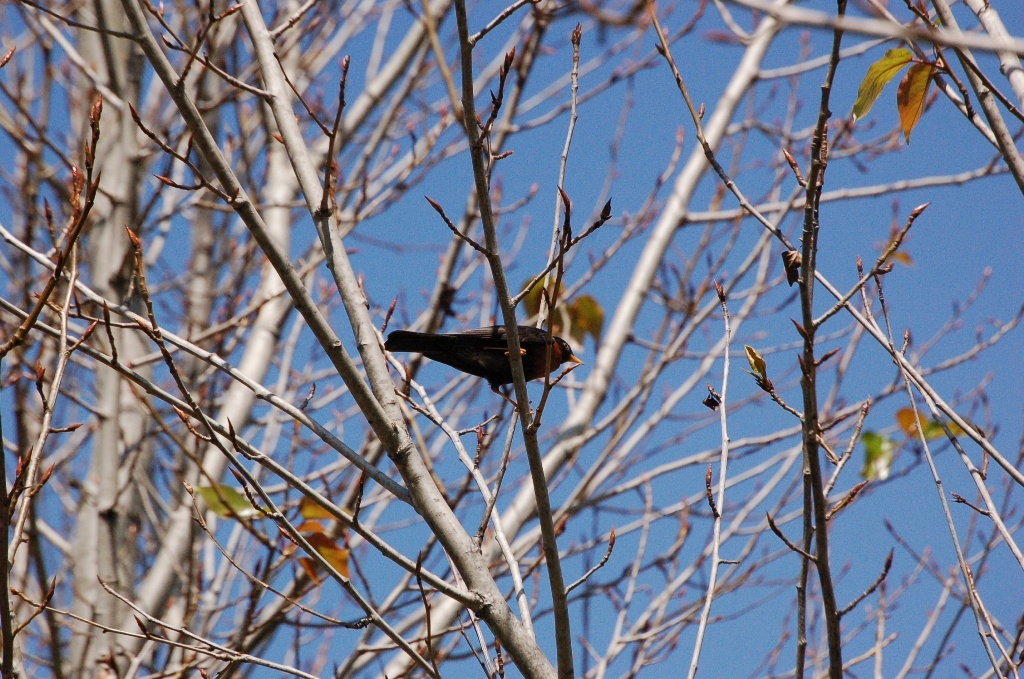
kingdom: Animalia
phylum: Chordata
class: Aves
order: Passeriformes
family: Turdidae
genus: Turdus
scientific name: Turdus rufitorques
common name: Rufous-collared thrush
